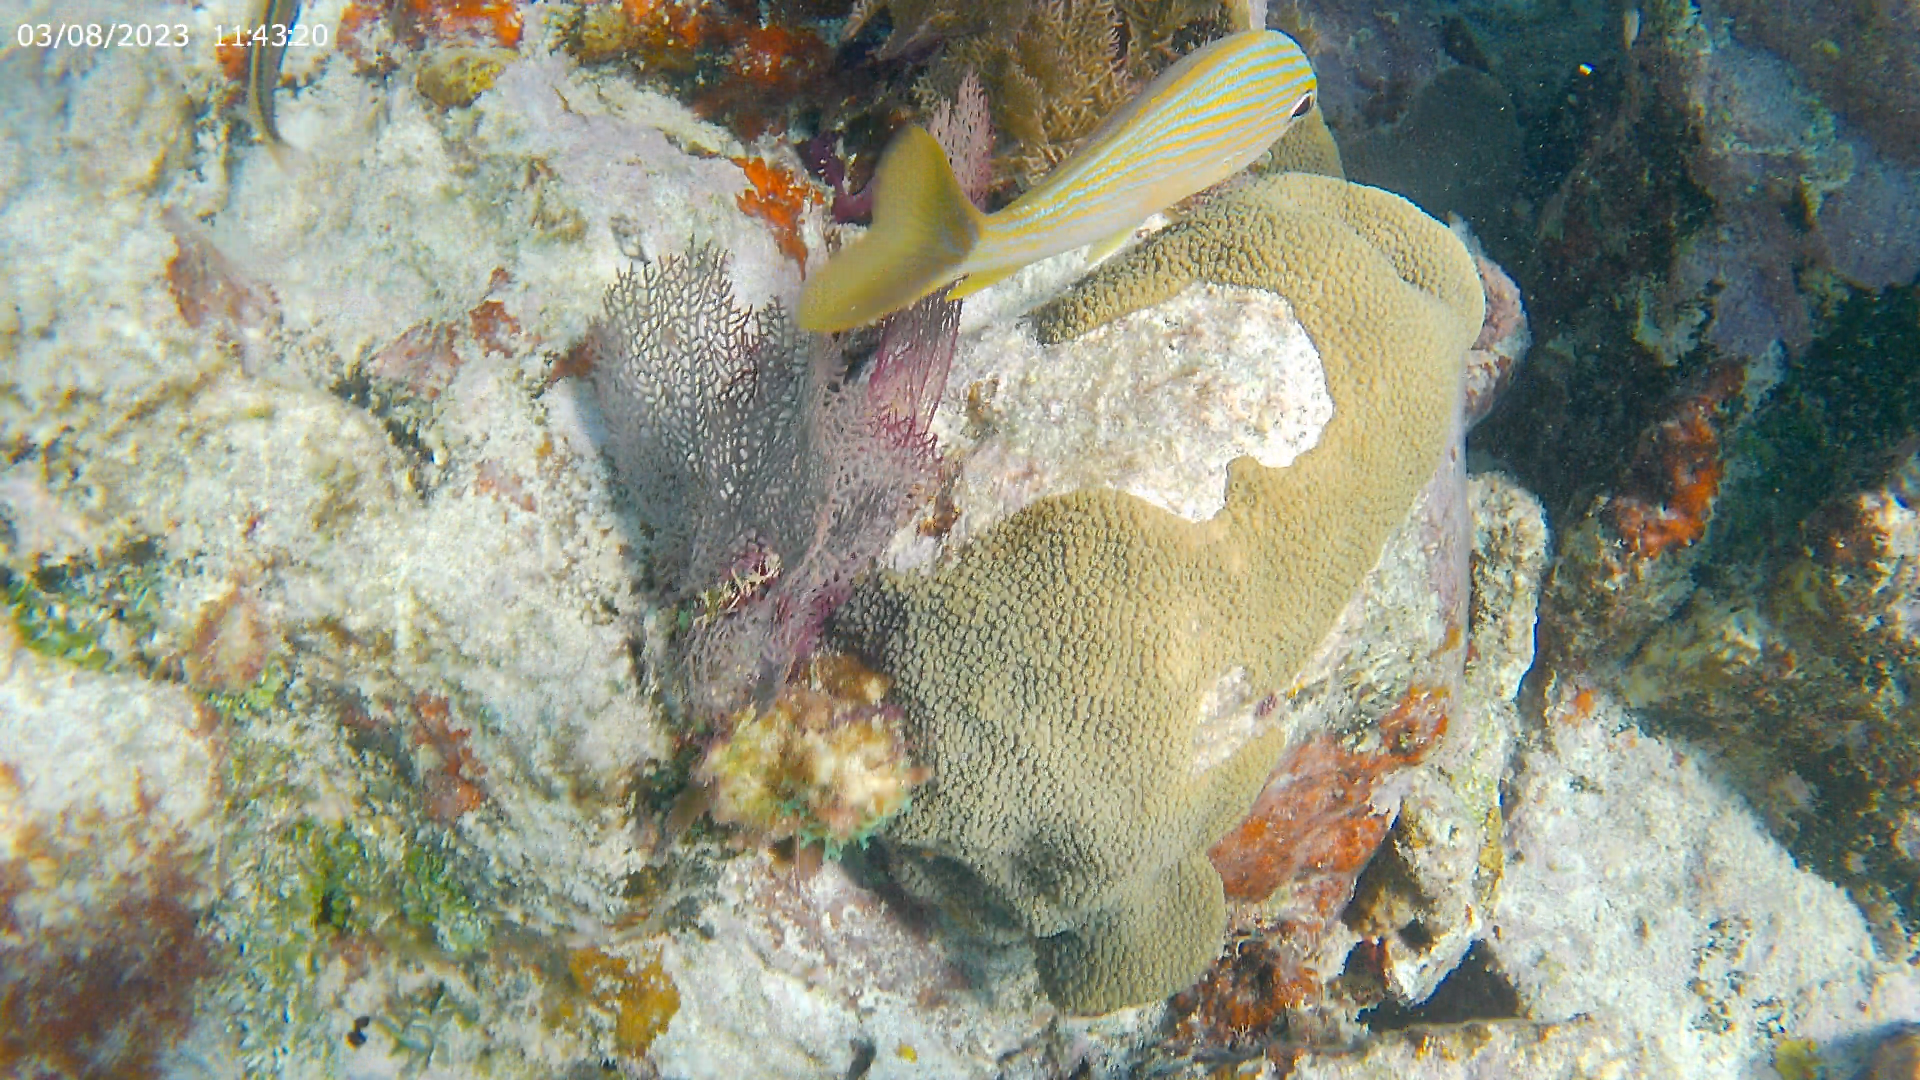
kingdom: Animalia
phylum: Chordata
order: Perciformes
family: Haemulidae
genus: Haemulon
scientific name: Haemulon sciurus
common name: Bluestriped grunt
